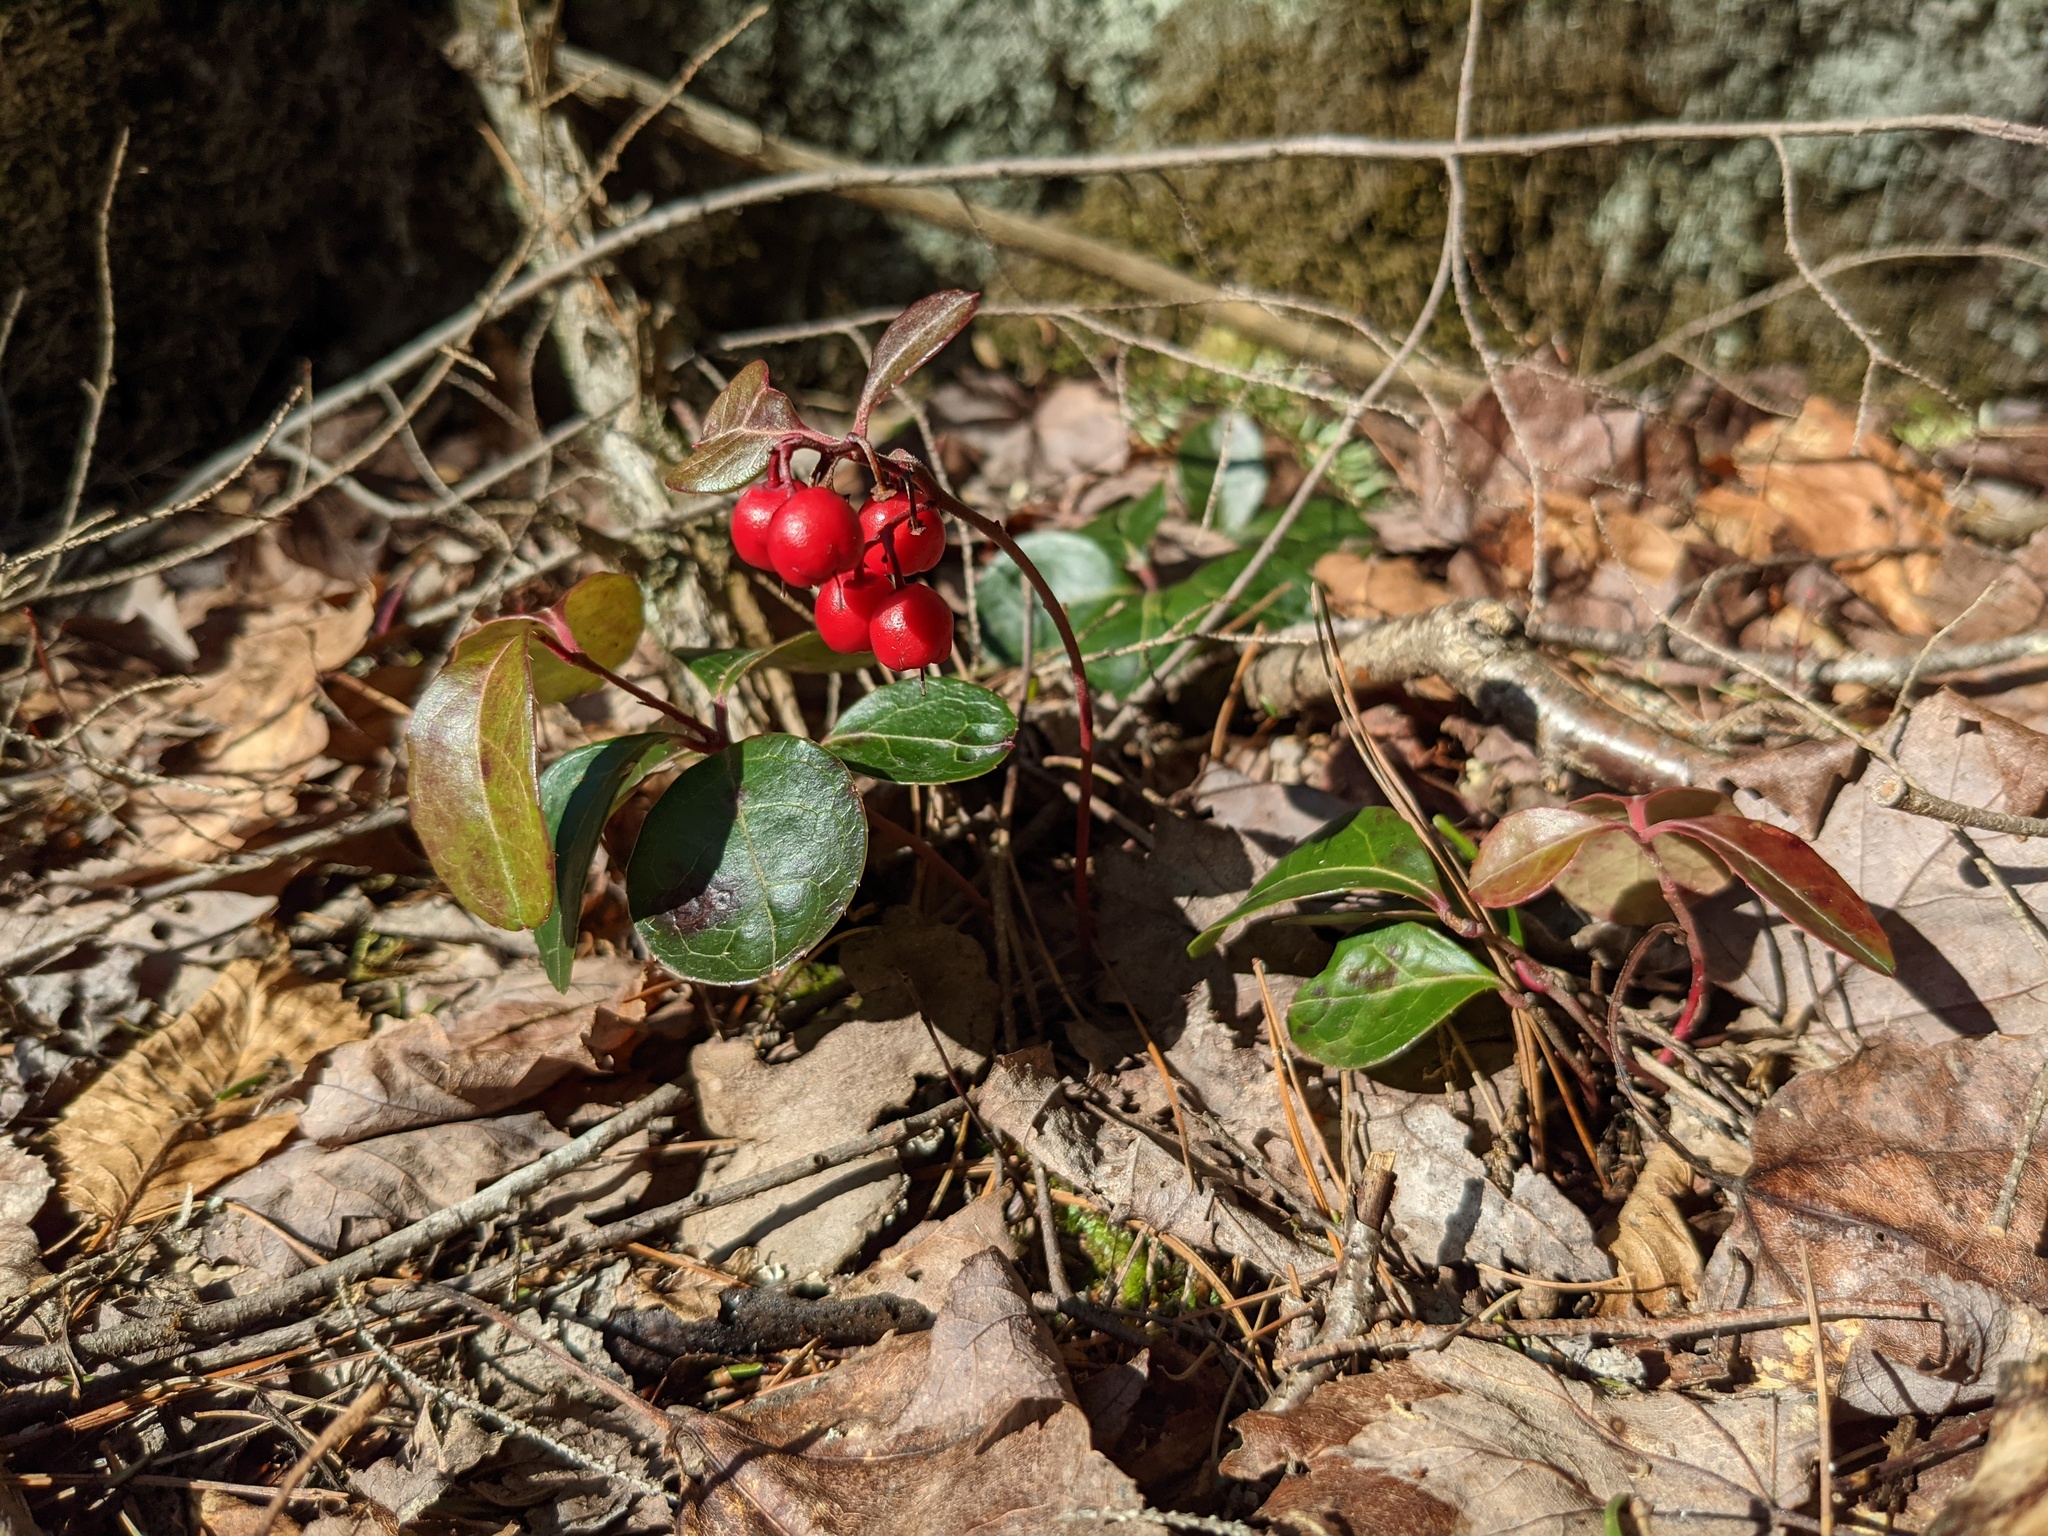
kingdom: Plantae
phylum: Tracheophyta
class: Magnoliopsida
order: Ericales
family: Ericaceae
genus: Gaultheria
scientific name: Gaultheria procumbens
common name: Checkerberry
